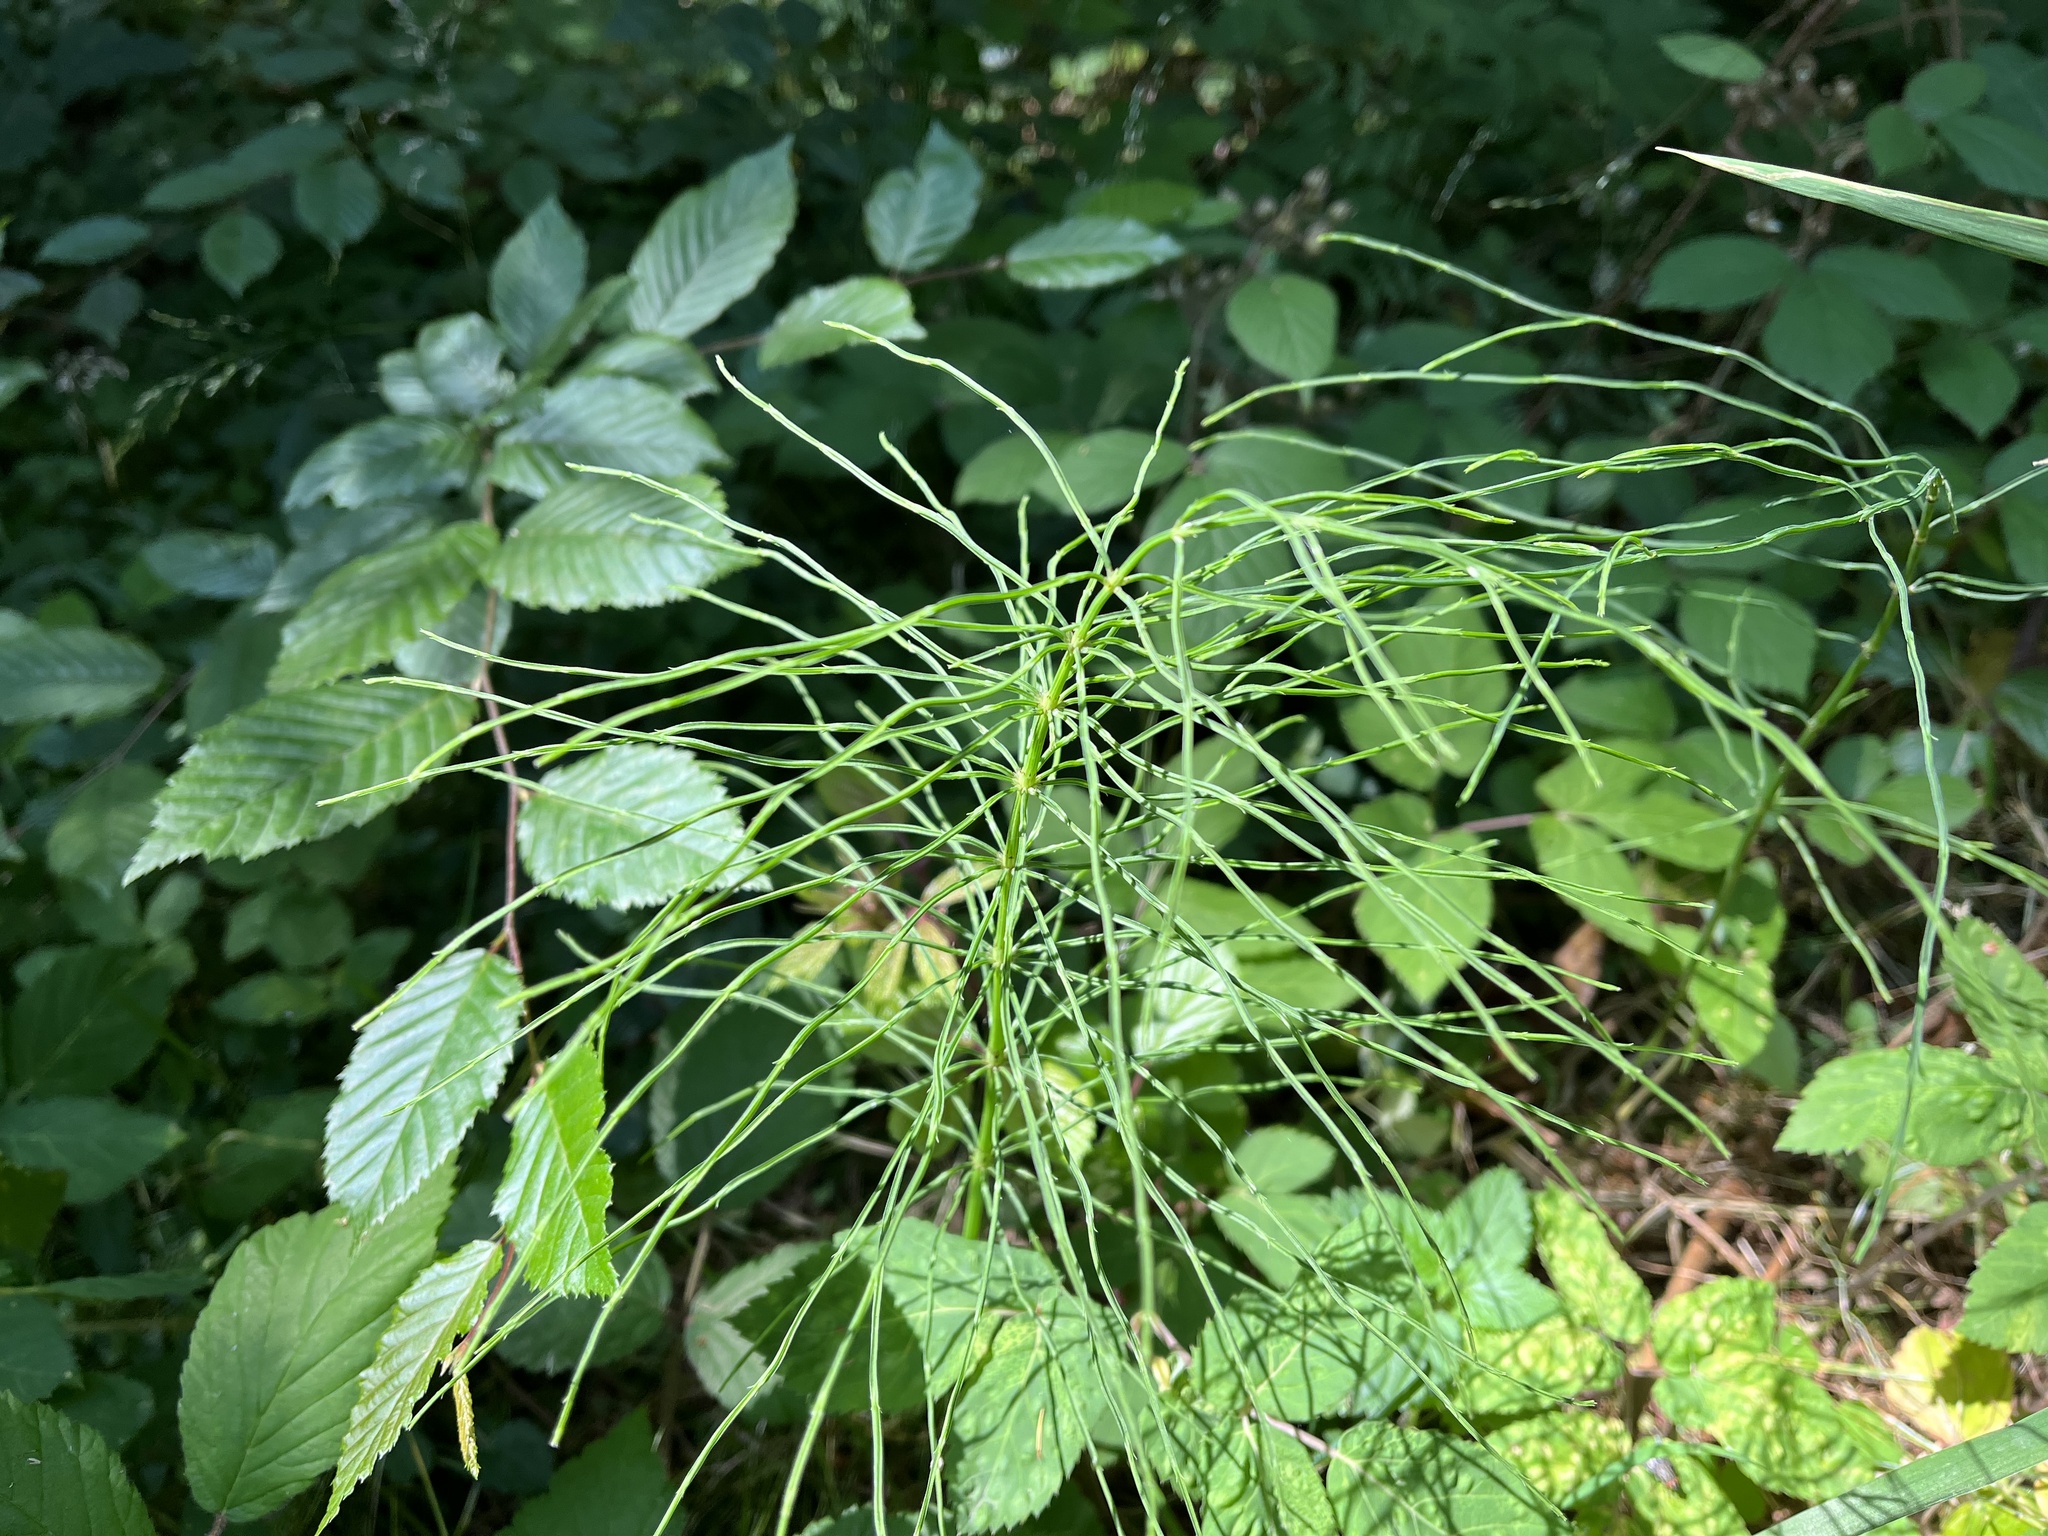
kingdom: Plantae
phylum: Tracheophyta
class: Polypodiopsida
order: Equisetales
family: Equisetaceae
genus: Equisetum
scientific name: Equisetum arvense
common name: Field horsetail
